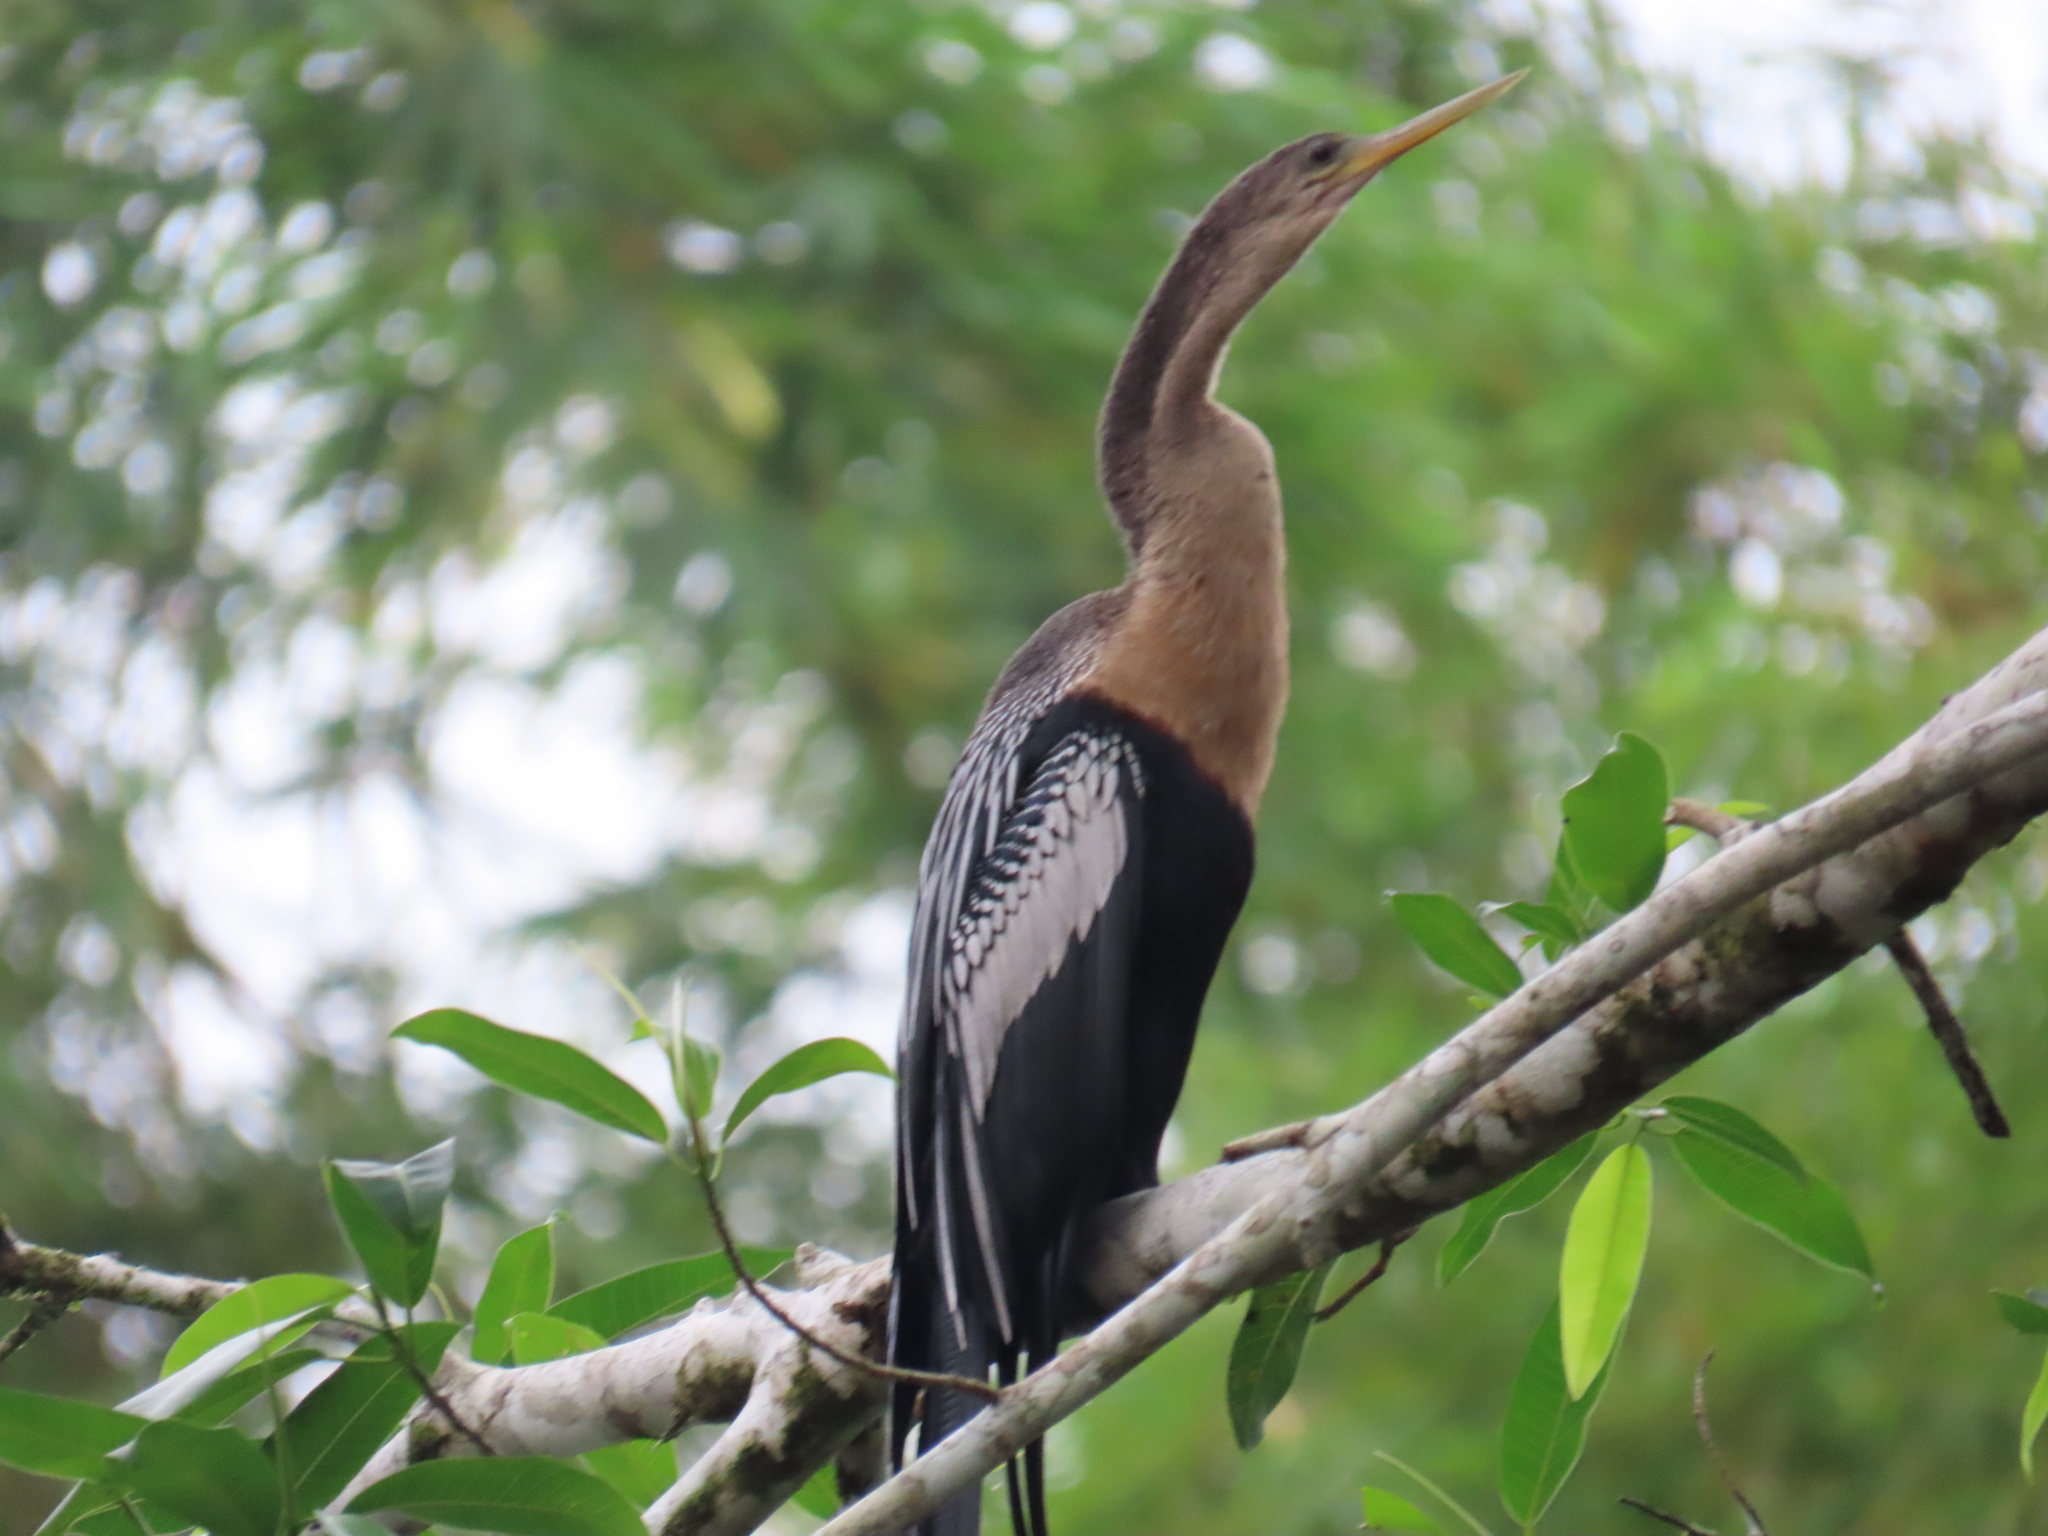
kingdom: Animalia
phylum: Chordata
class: Aves
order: Suliformes
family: Anhingidae
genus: Anhinga
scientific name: Anhinga anhinga
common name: Anhinga
